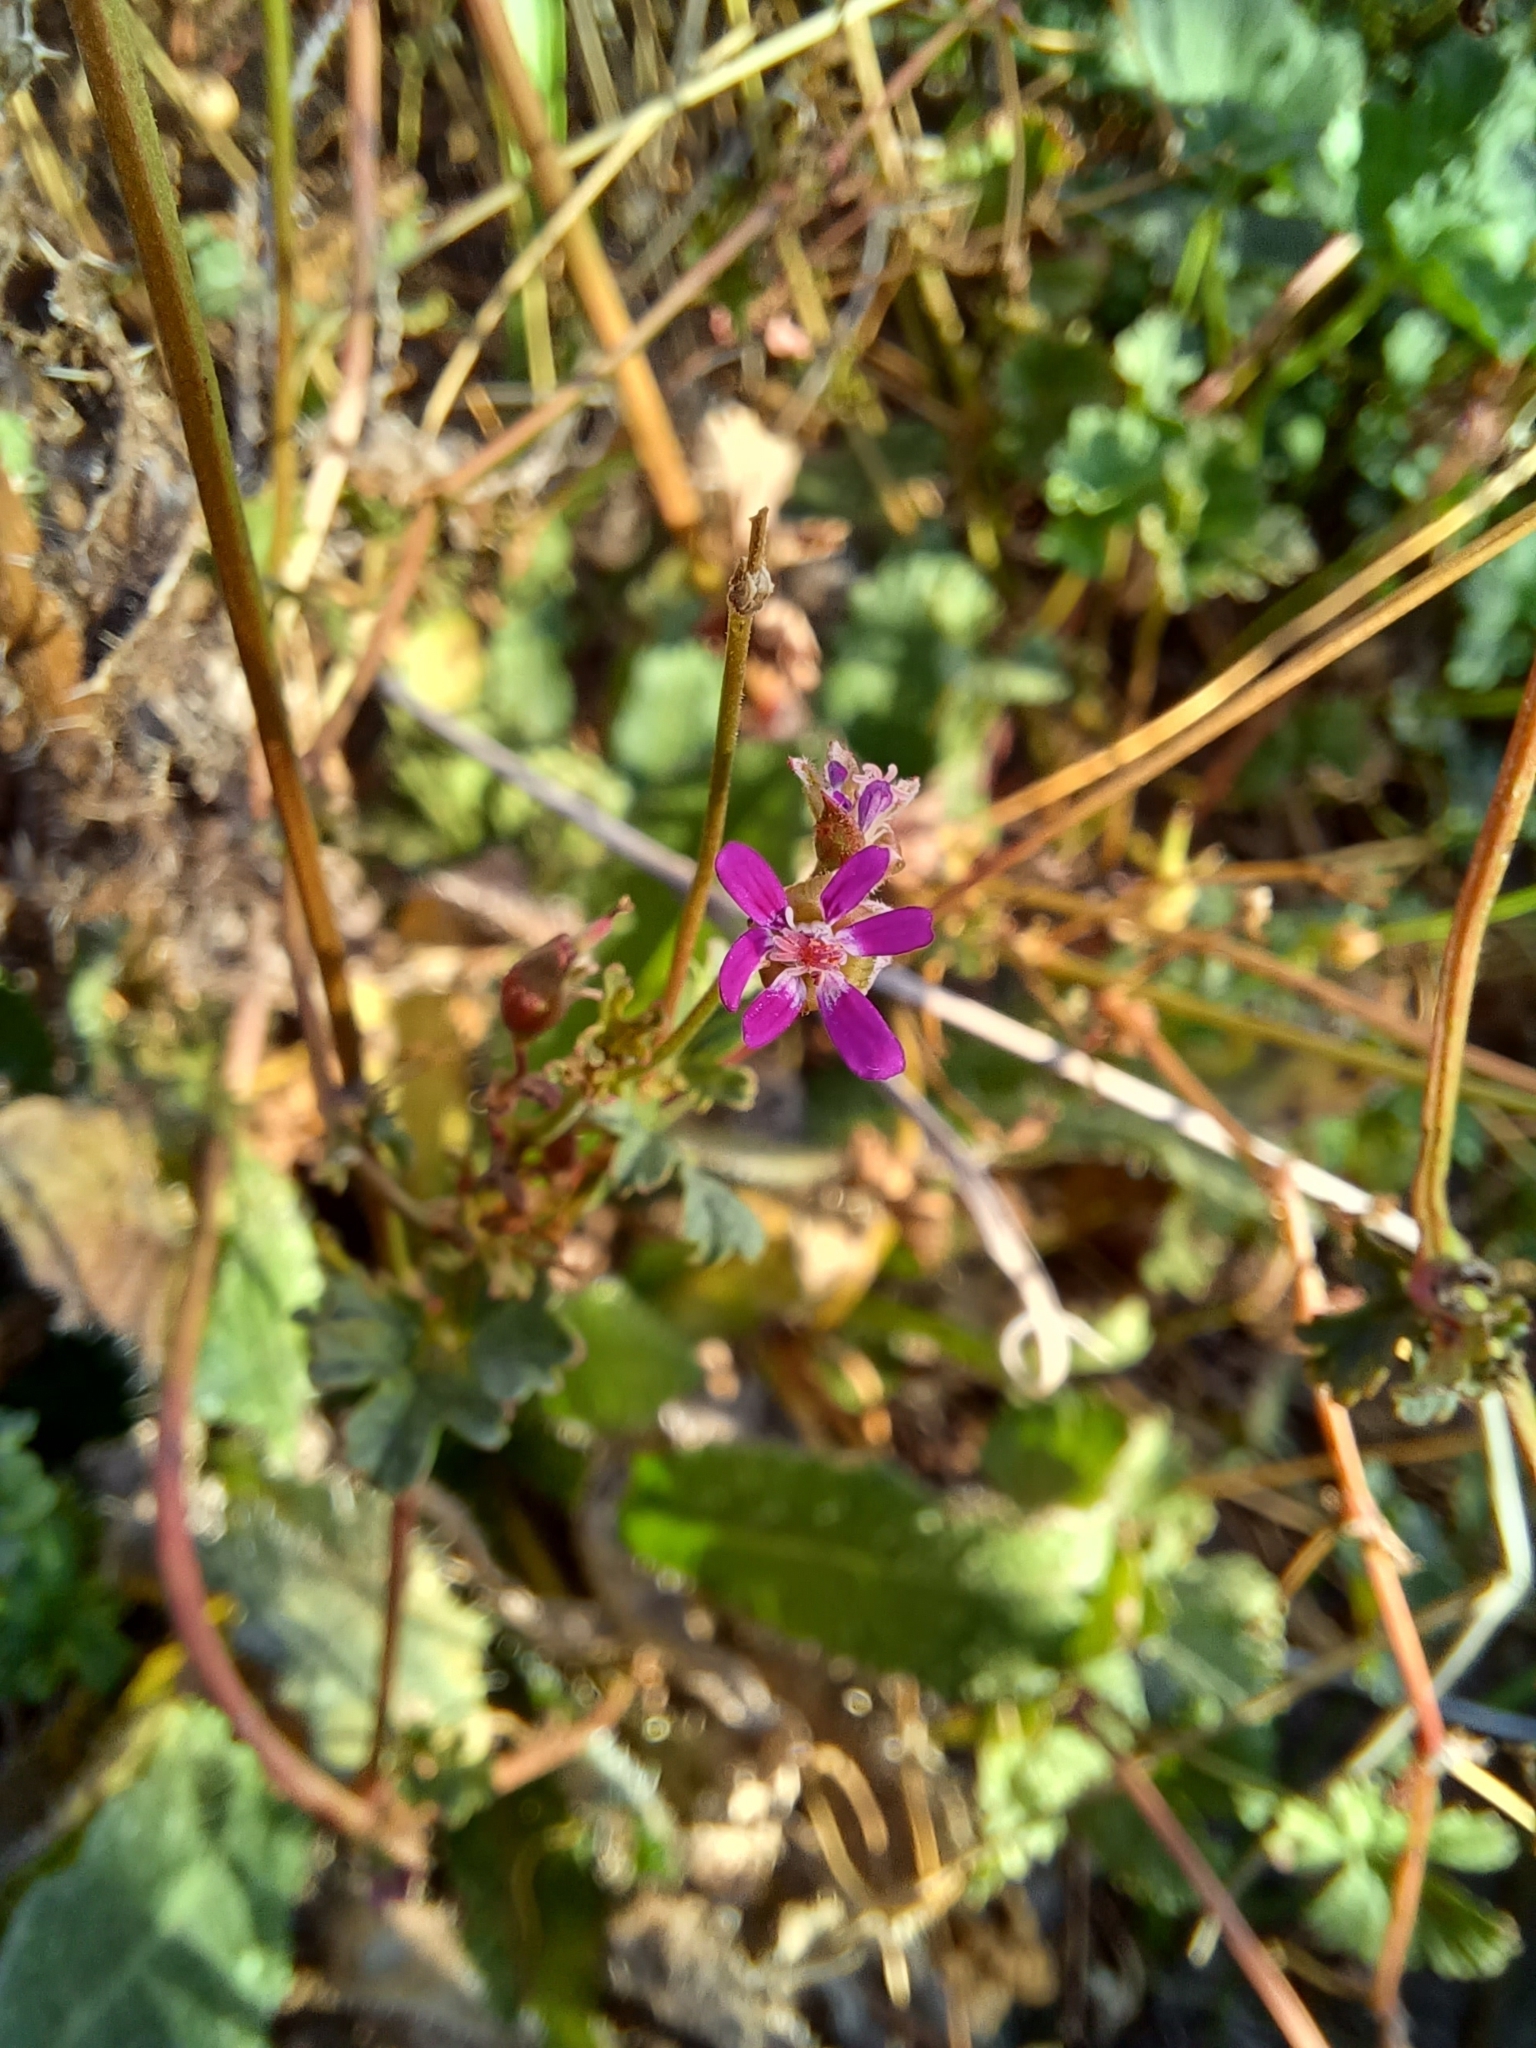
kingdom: Plantae
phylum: Tracheophyta
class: Magnoliopsida
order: Geraniales
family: Geraniaceae
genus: Pelargonium
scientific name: Pelargonium grossularioides
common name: Gooseberry geranium
